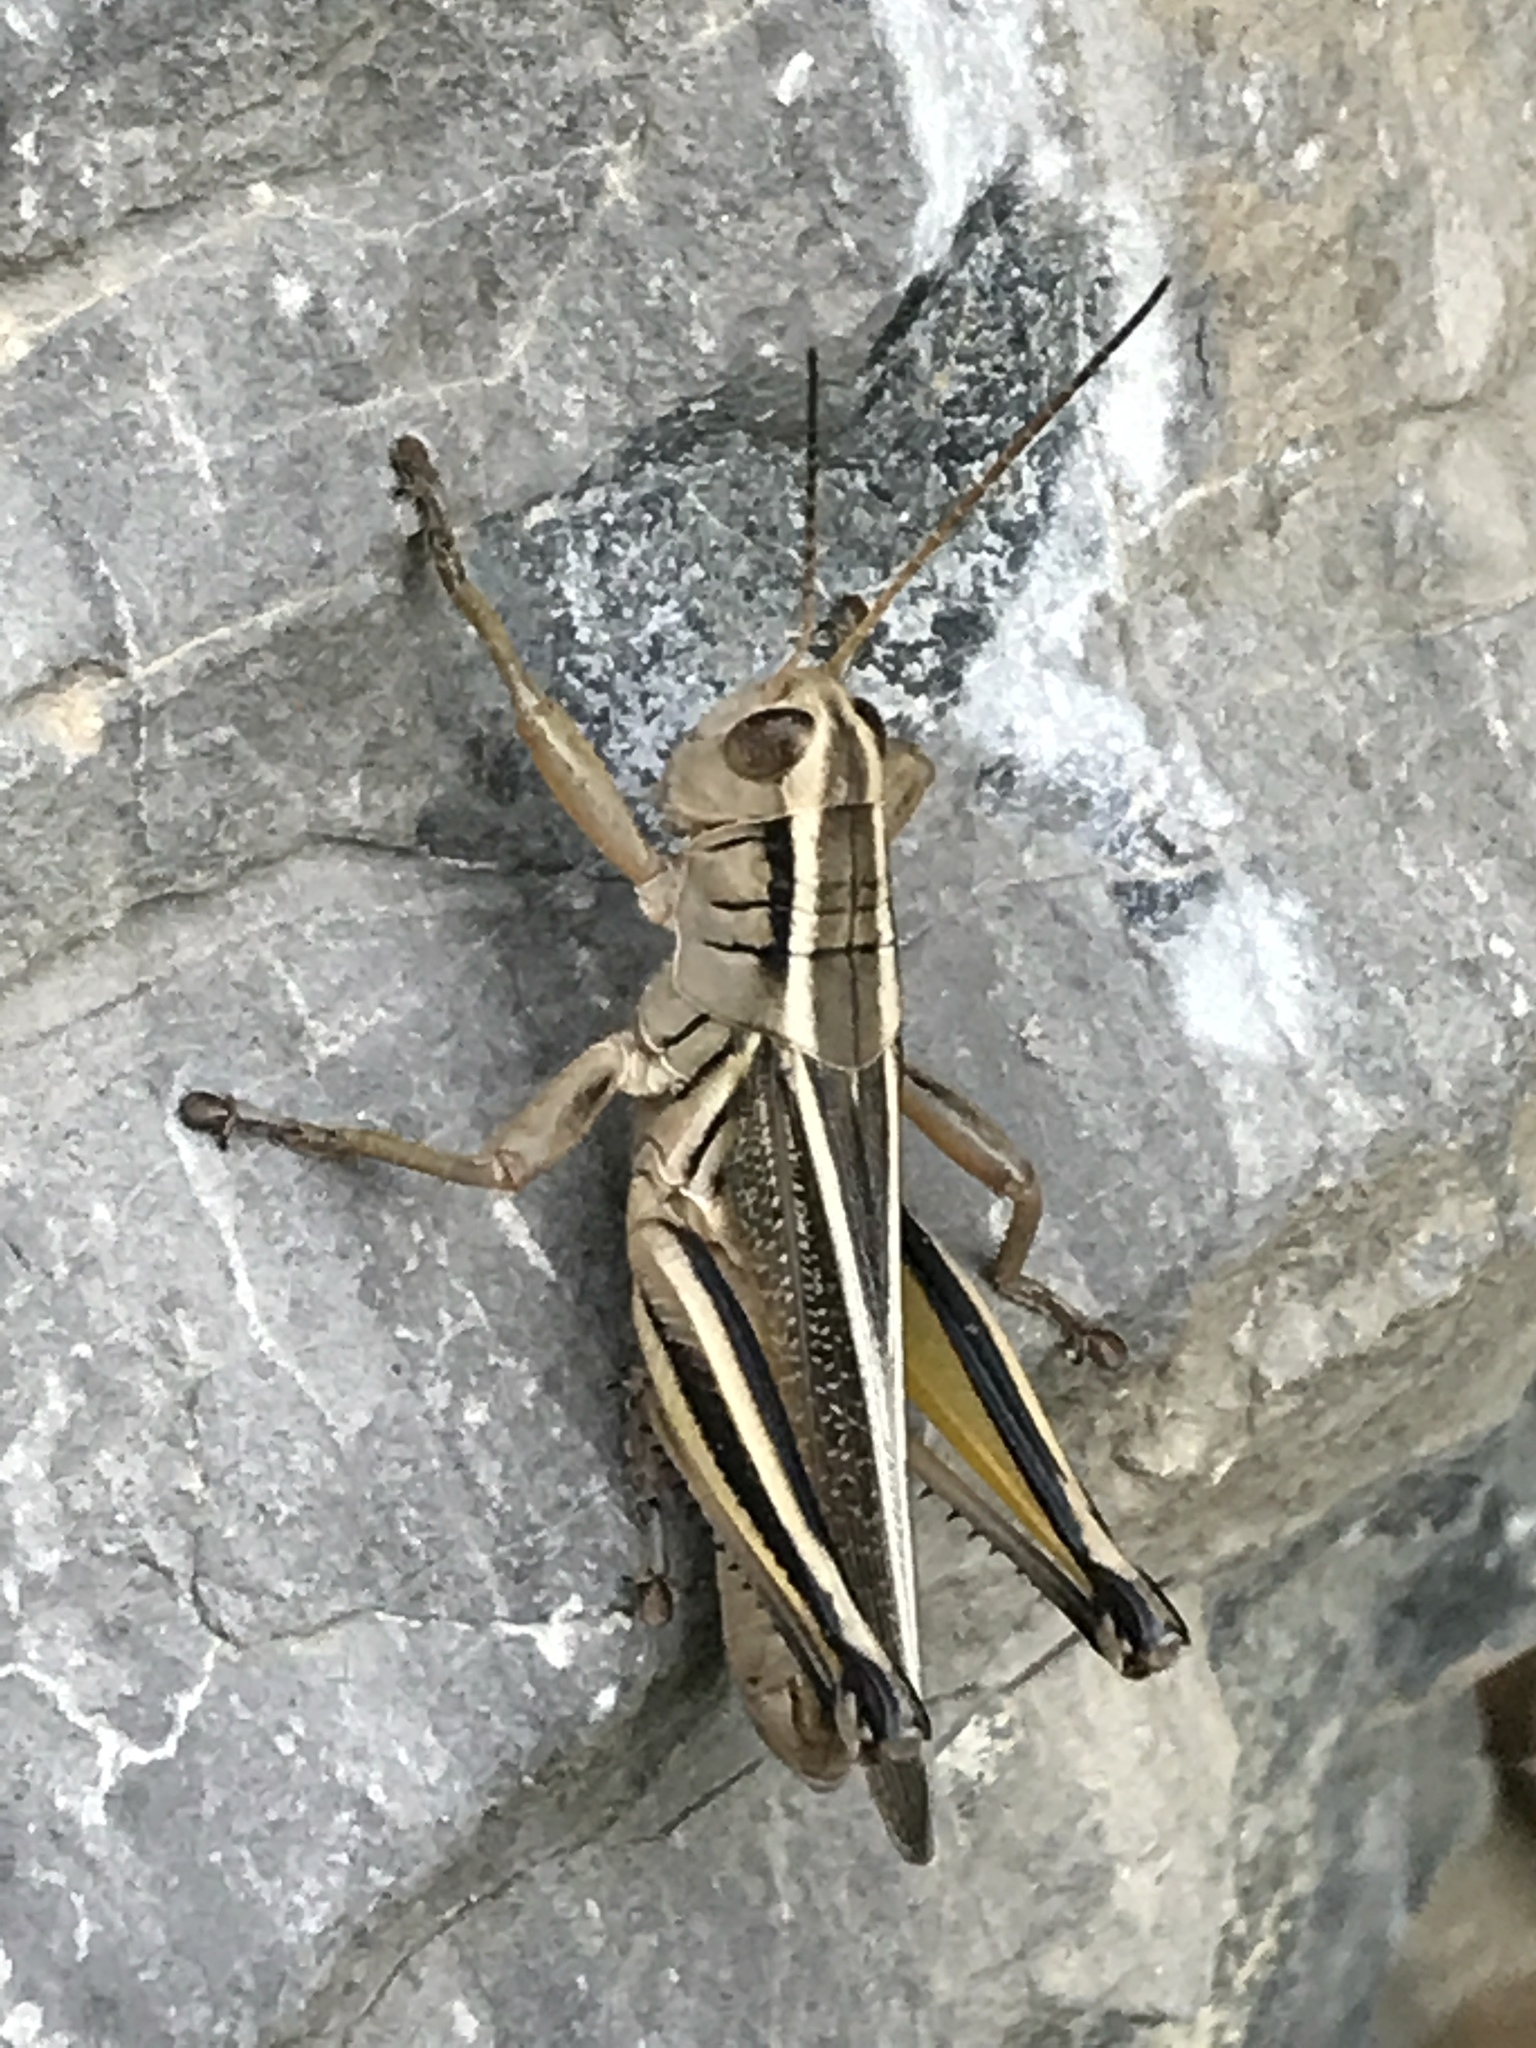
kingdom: Animalia
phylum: Arthropoda
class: Insecta
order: Orthoptera
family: Acrididae
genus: Melanoplus
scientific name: Melanoplus bivittatus
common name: Two-striped grasshopper
